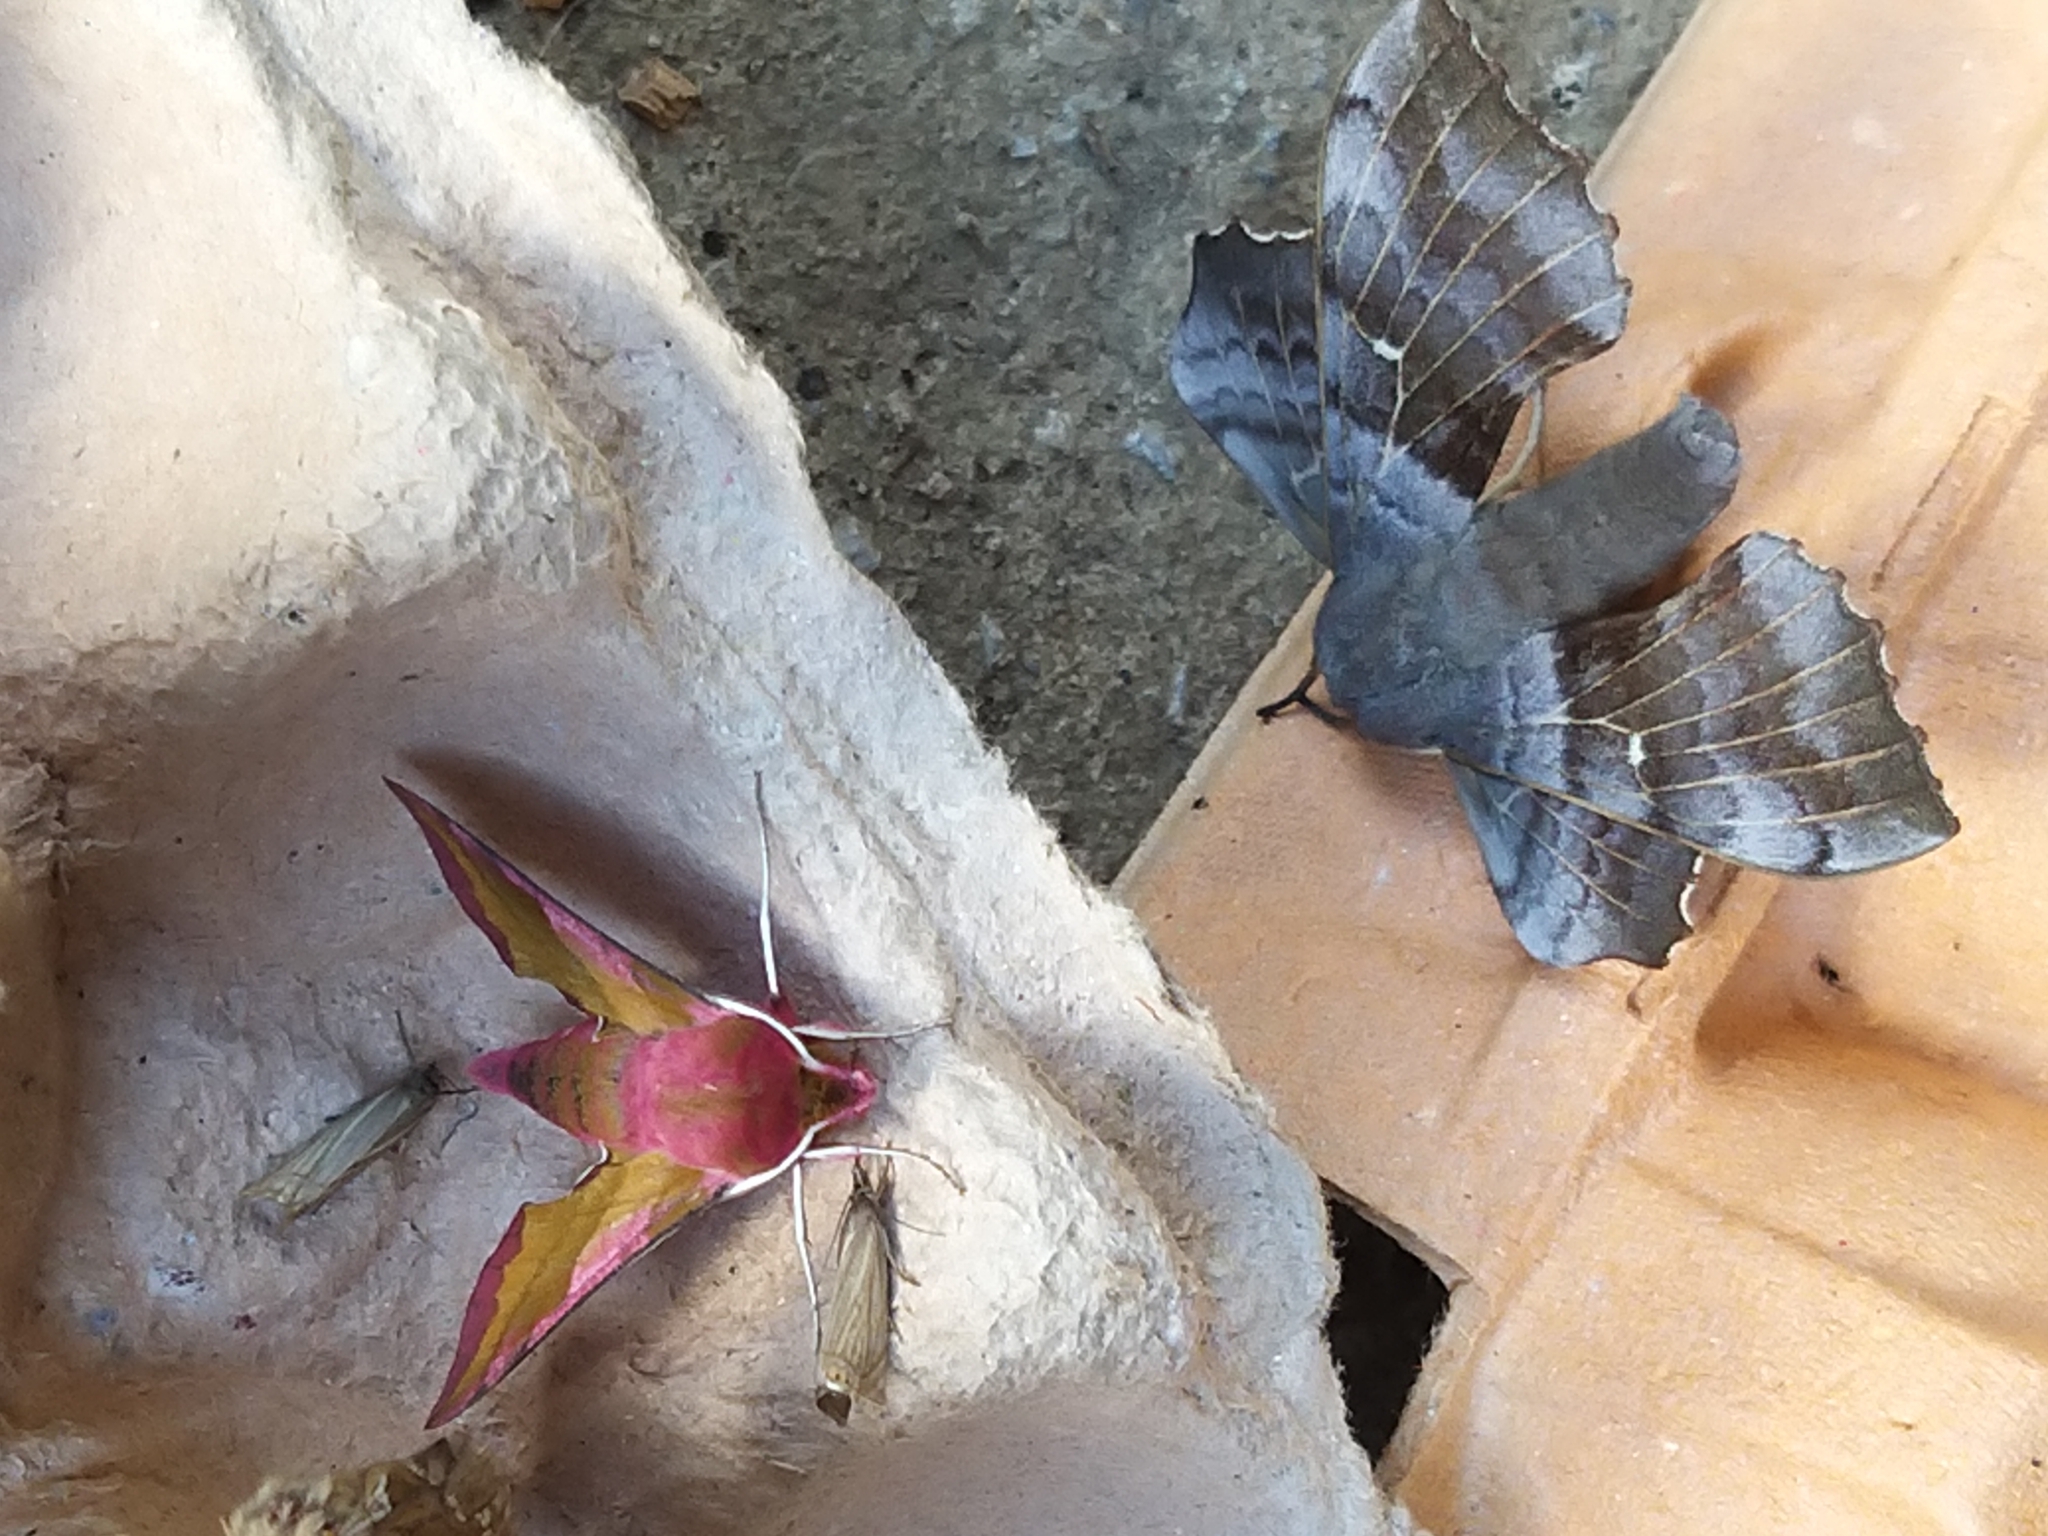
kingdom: Animalia
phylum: Arthropoda
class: Insecta
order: Lepidoptera
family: Sphingidae
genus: Laothoe
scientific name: Laothoe populi
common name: Poplar hawk-moth
